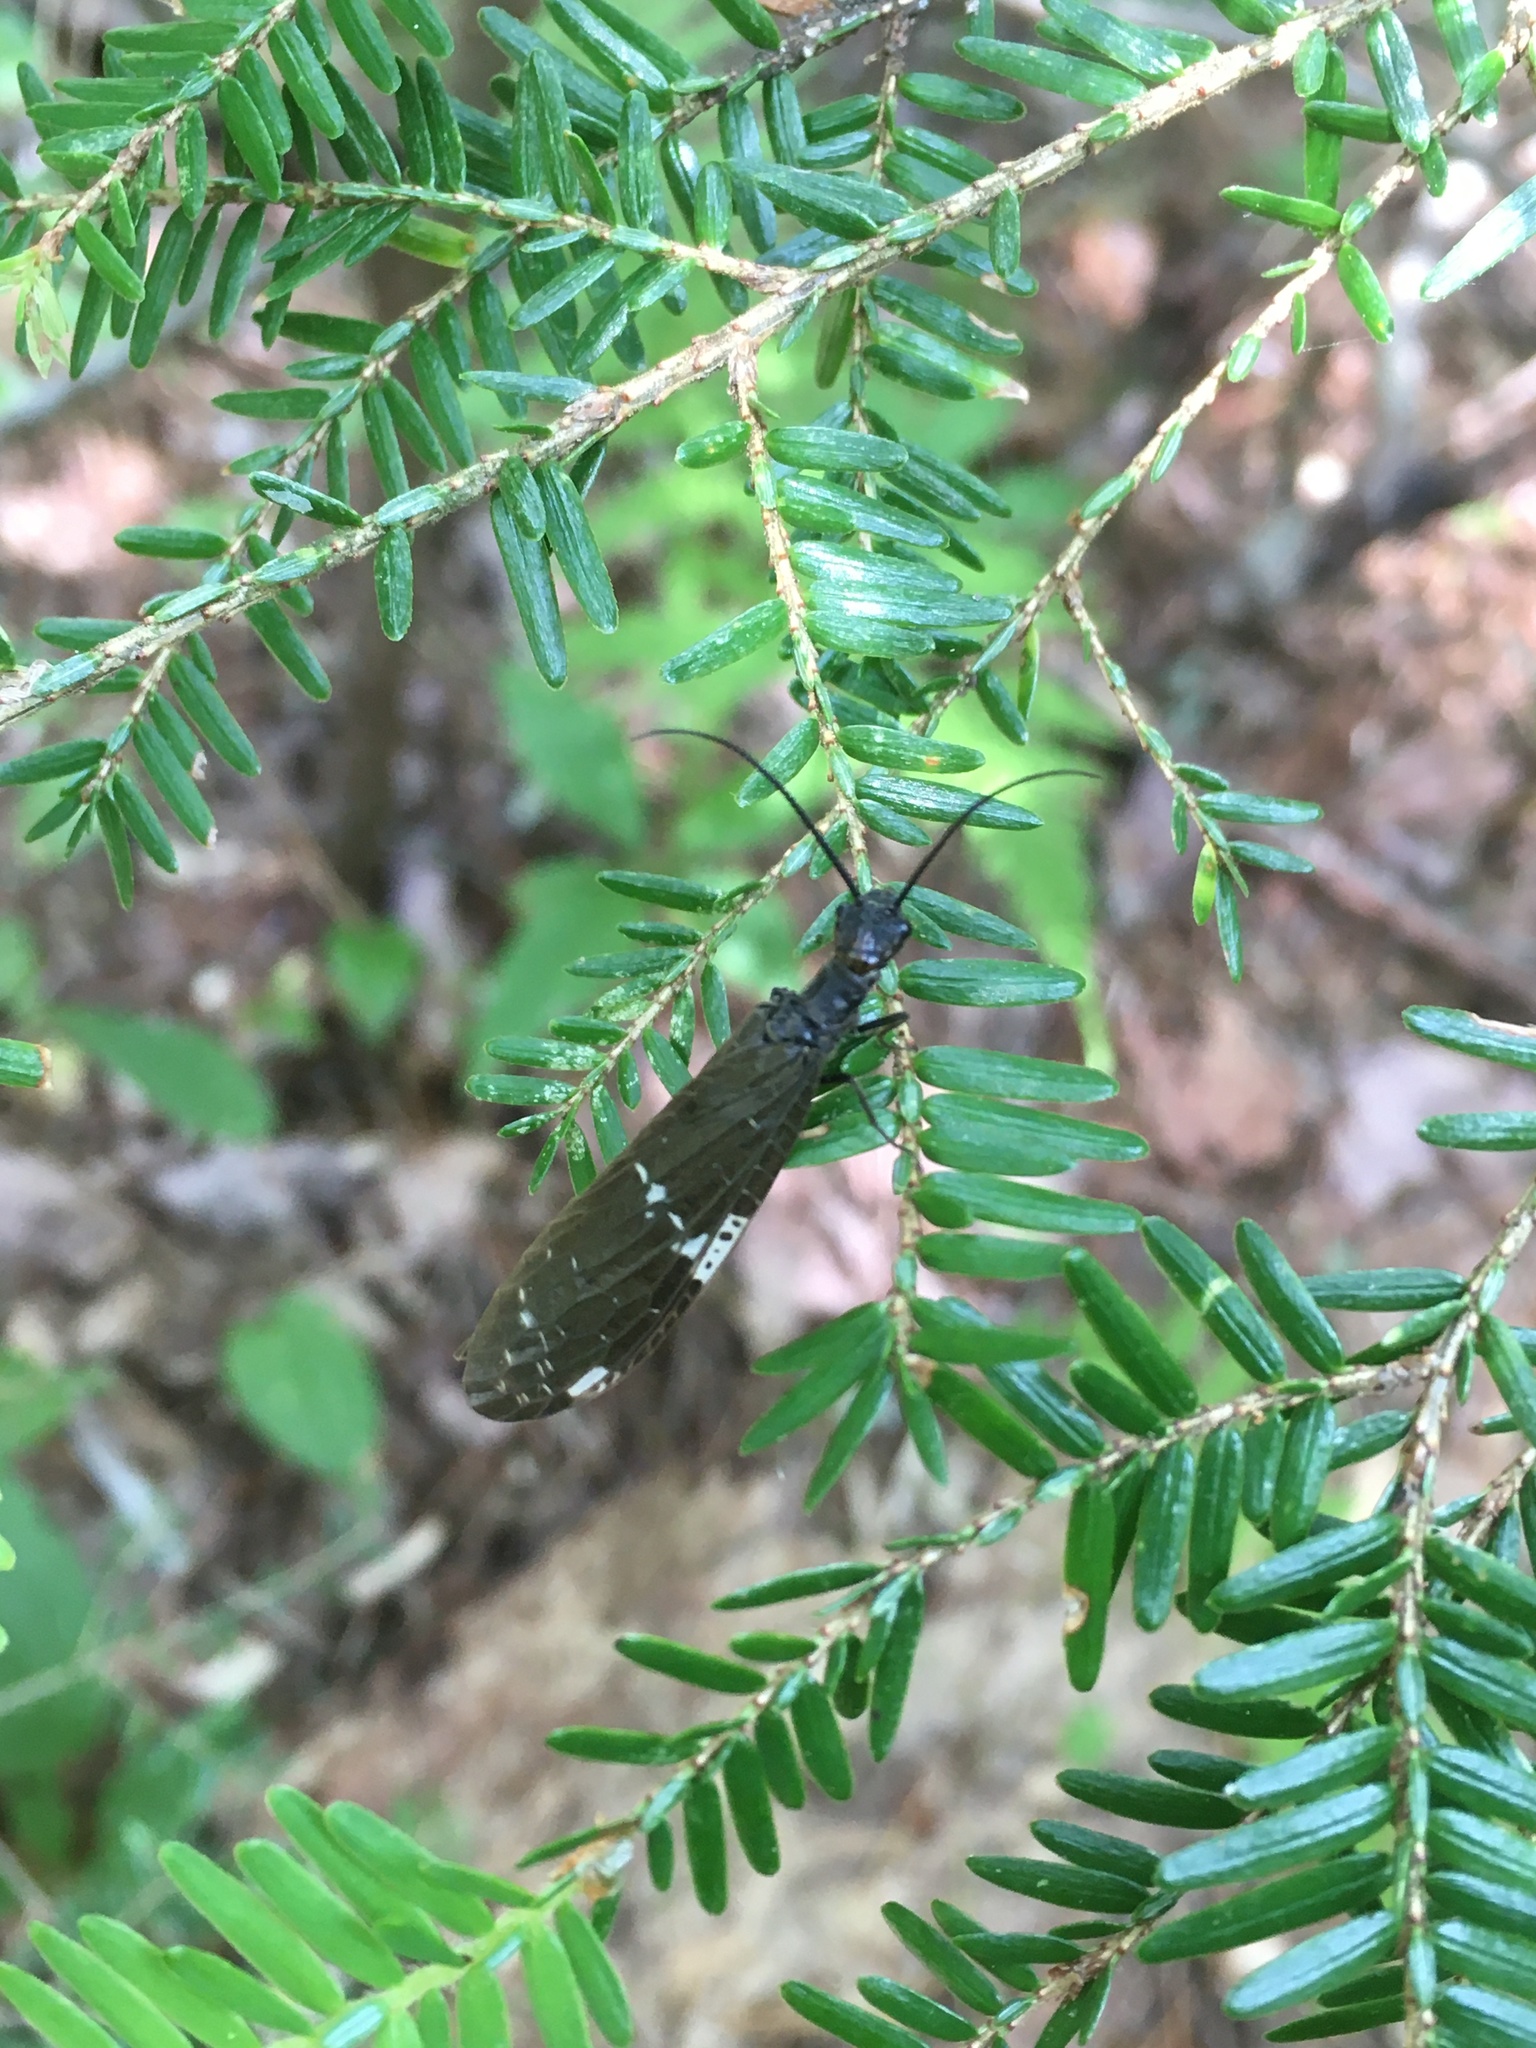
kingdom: Animalia
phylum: Arthropoda
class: Insecta
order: Megaloptera
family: Corydalidae
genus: Nigronia
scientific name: Nigronia serricornis
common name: Serrate dark fishfly
